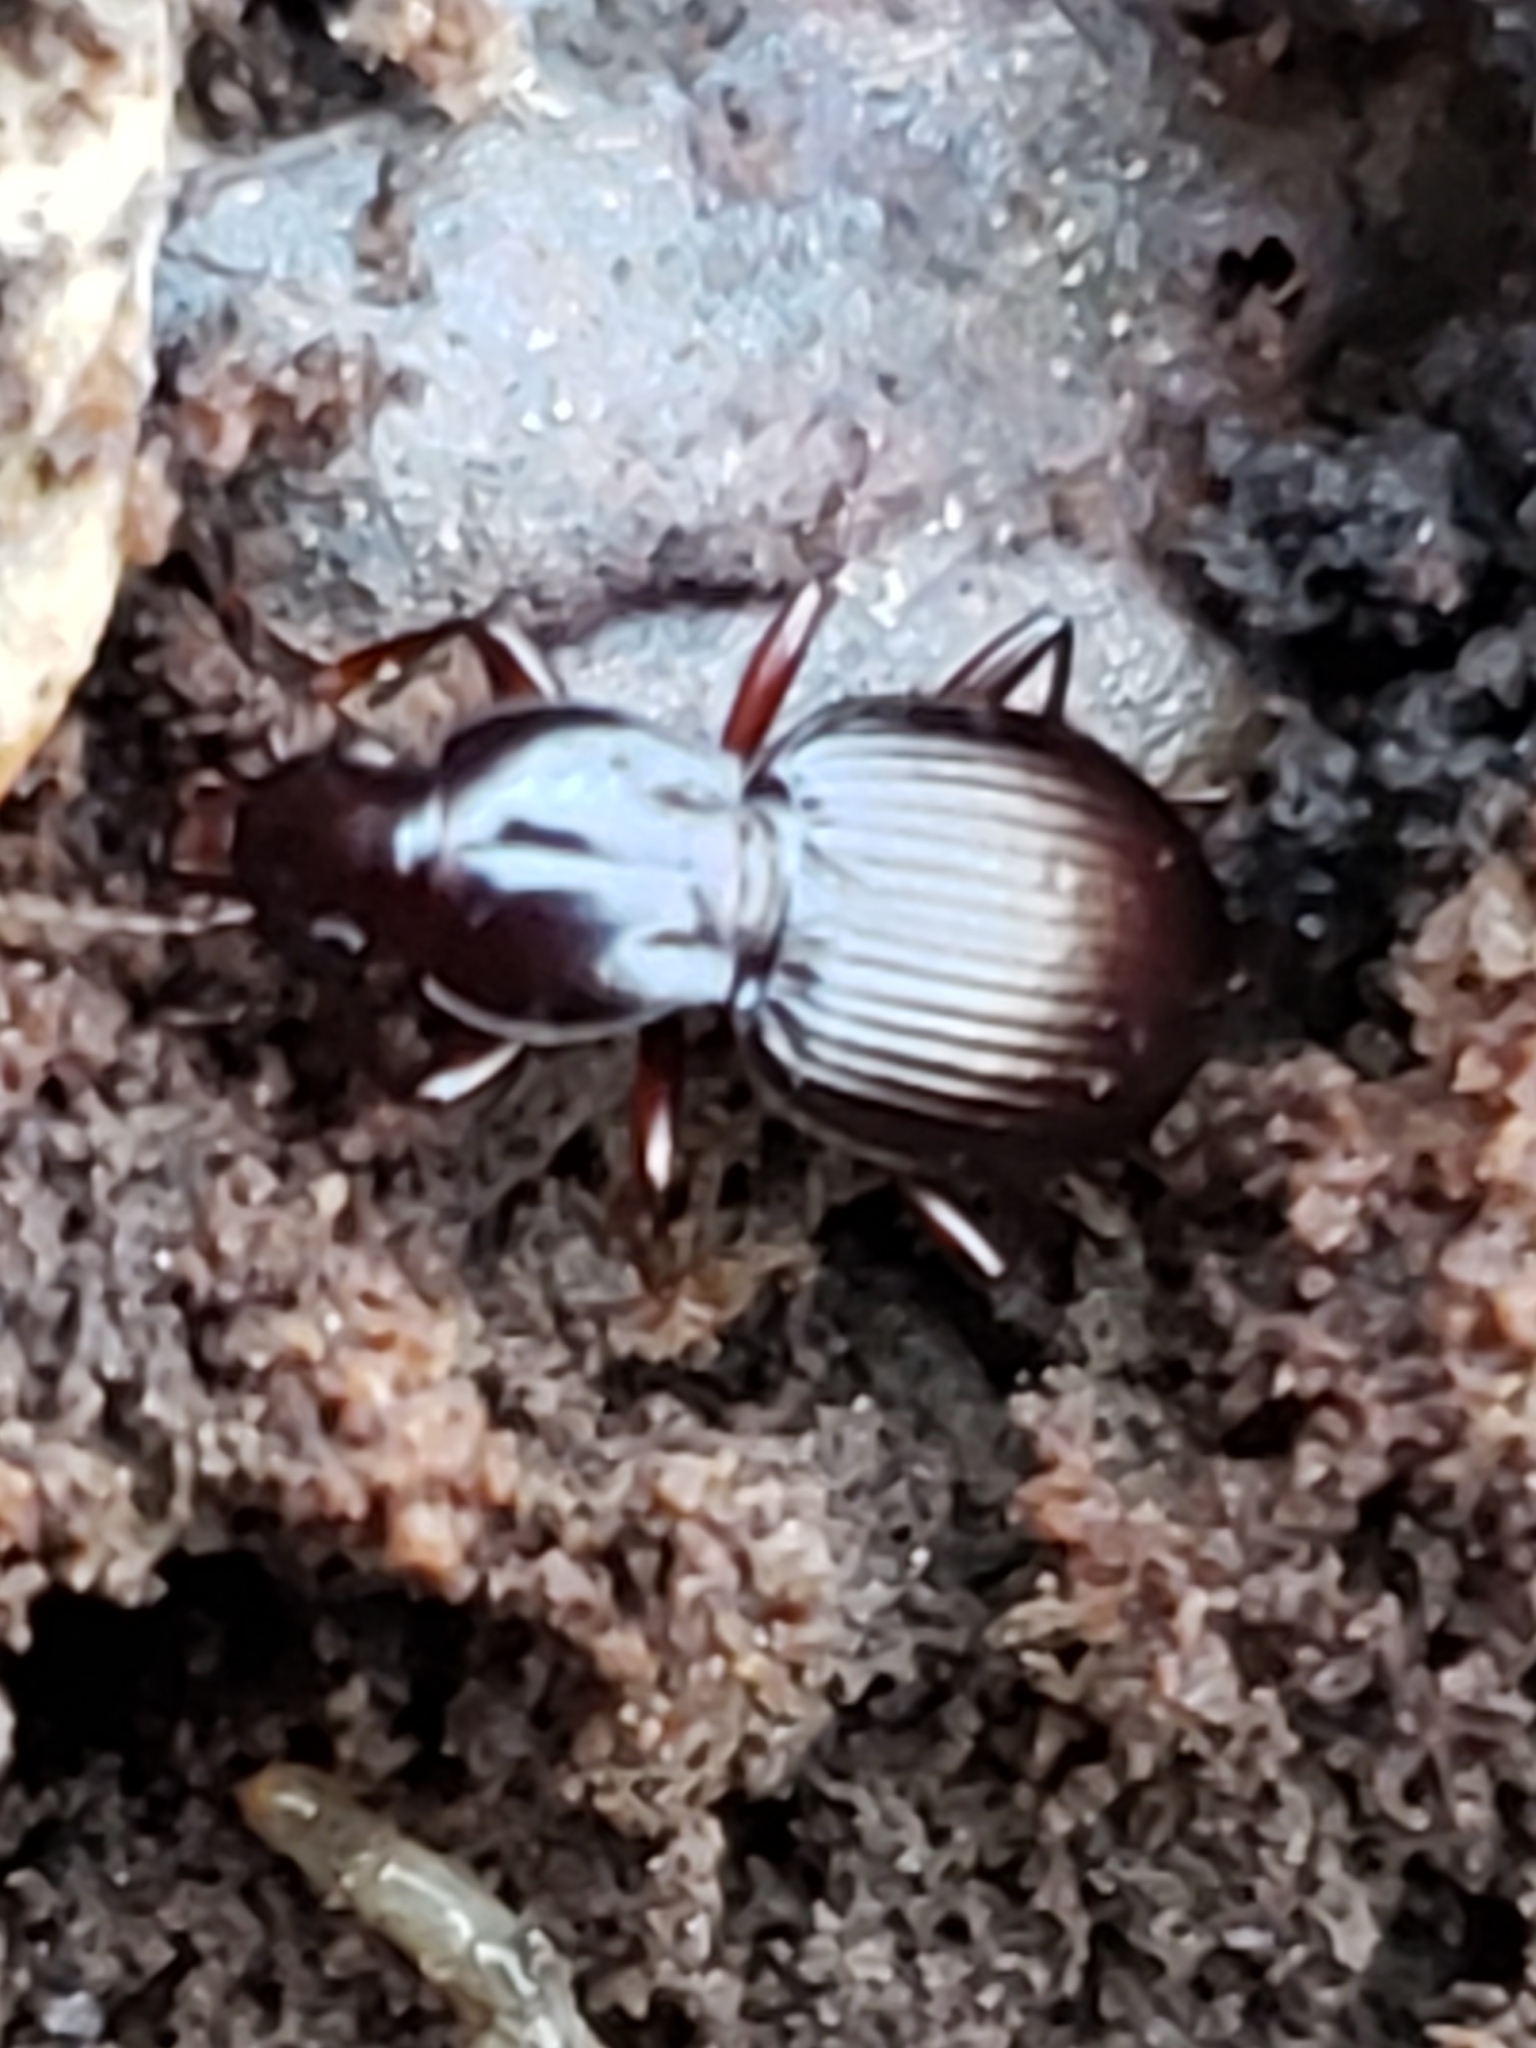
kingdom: Animalia
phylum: Arthropoda
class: Insecta
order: Coleoptera
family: Carabidae
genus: Gastrellarius
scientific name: Gastrellarius honestus
